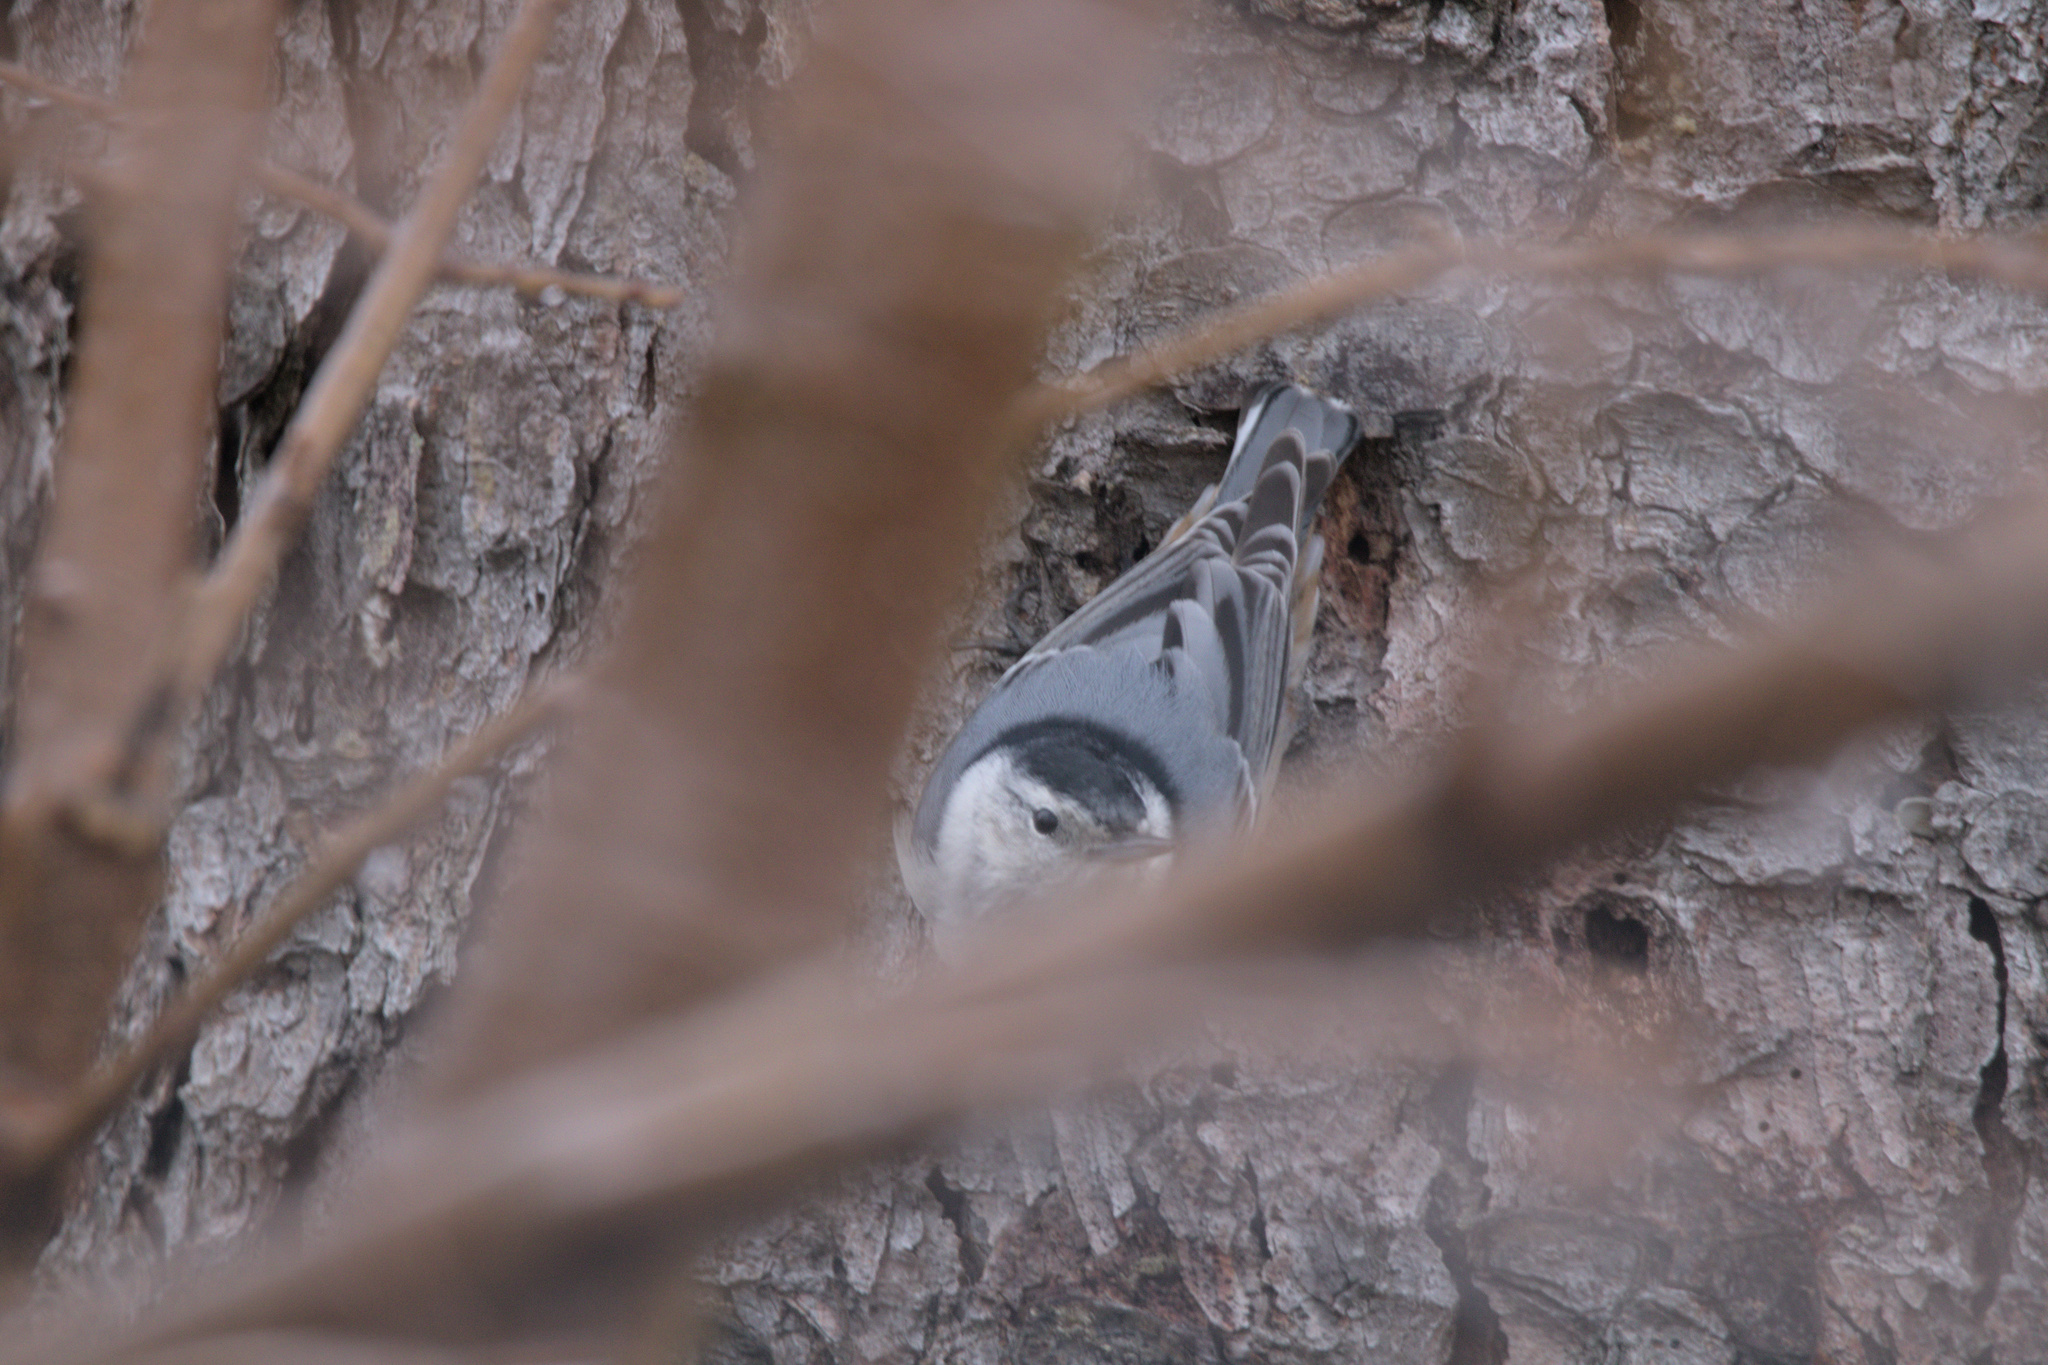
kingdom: Animalia
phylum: Chordata
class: Aves
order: Passeriformes
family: Sittidae
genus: Sitta
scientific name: Sitta carolinensis
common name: White-breasted nuthatch
